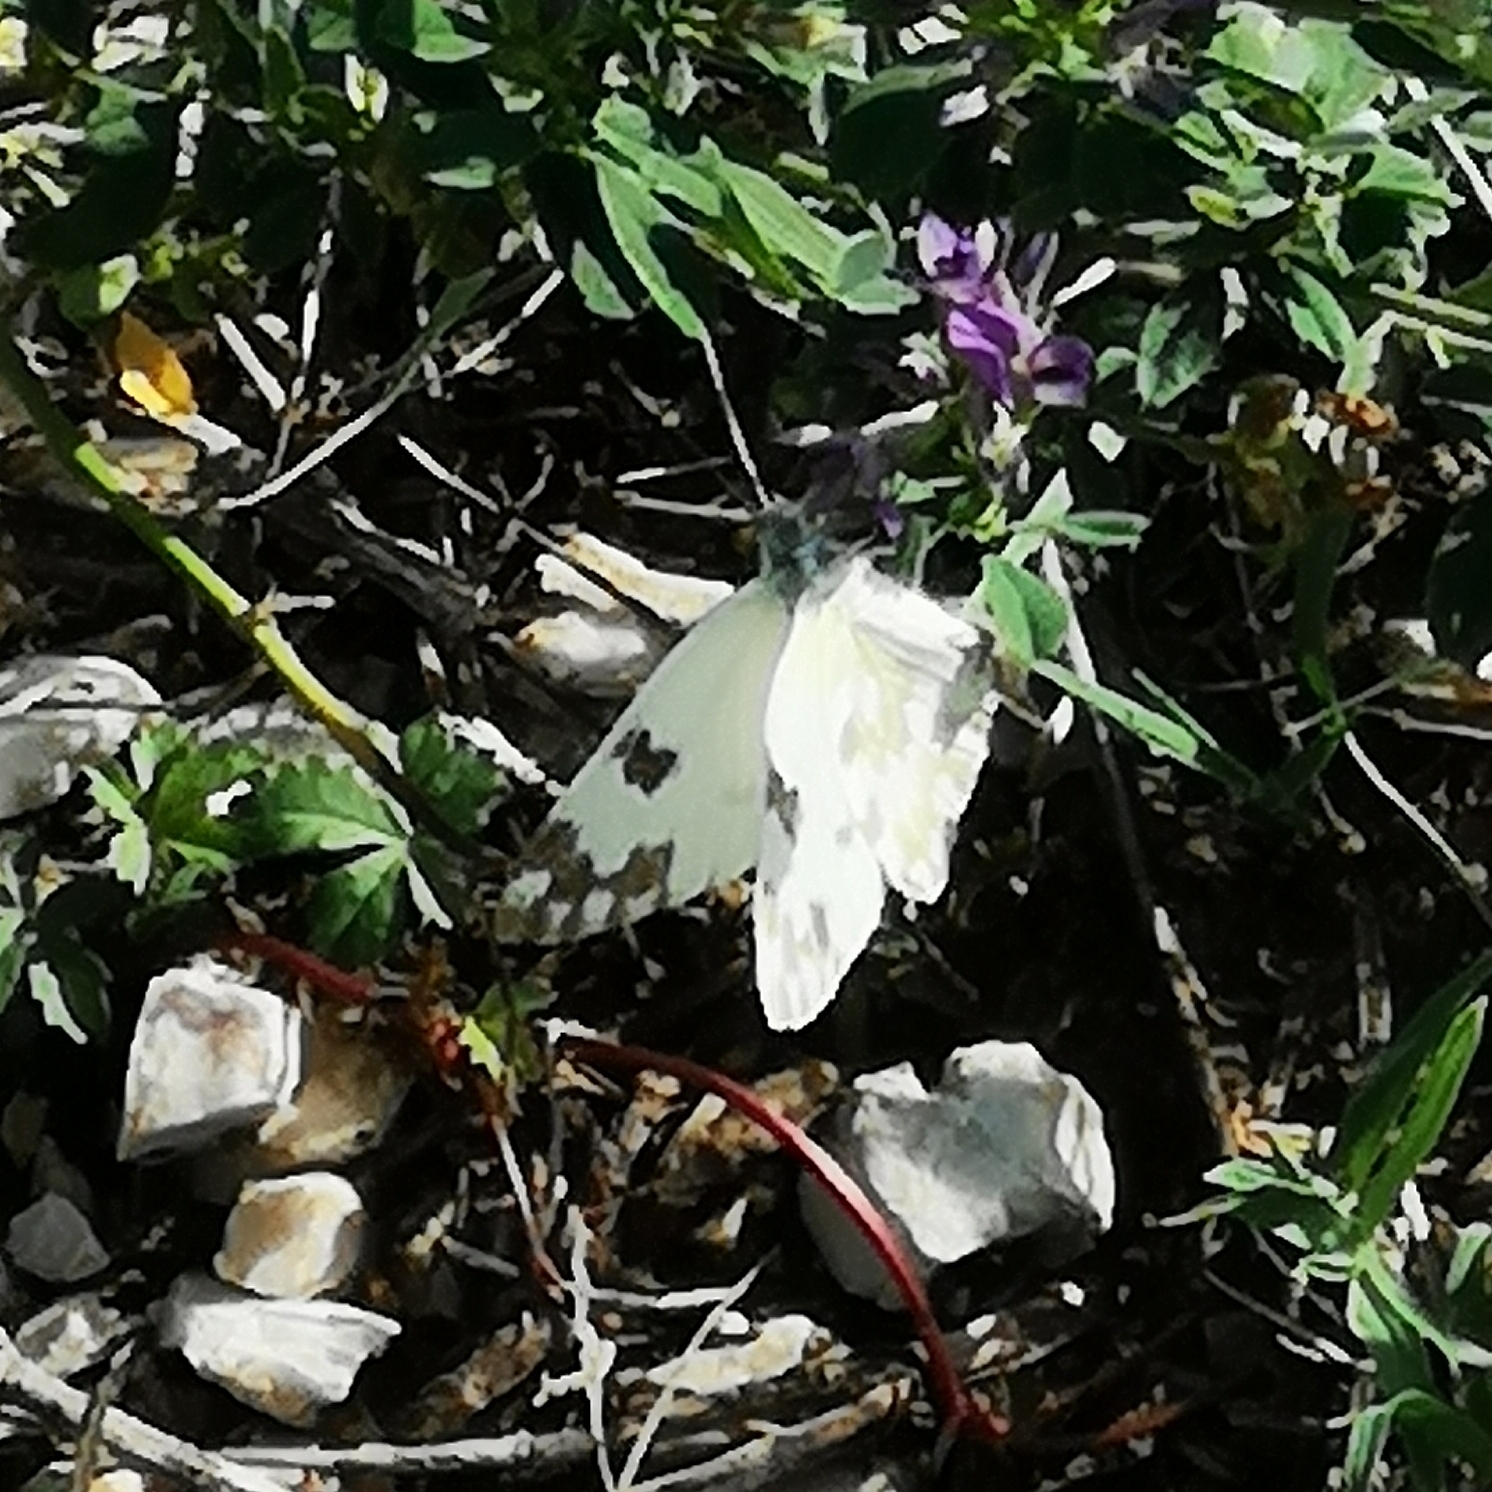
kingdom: Animalia
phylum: Arthropoda
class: Insecta
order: Lepidoptera
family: Pieridae
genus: Pontia
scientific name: Pontia edusa
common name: Eastern bath white
